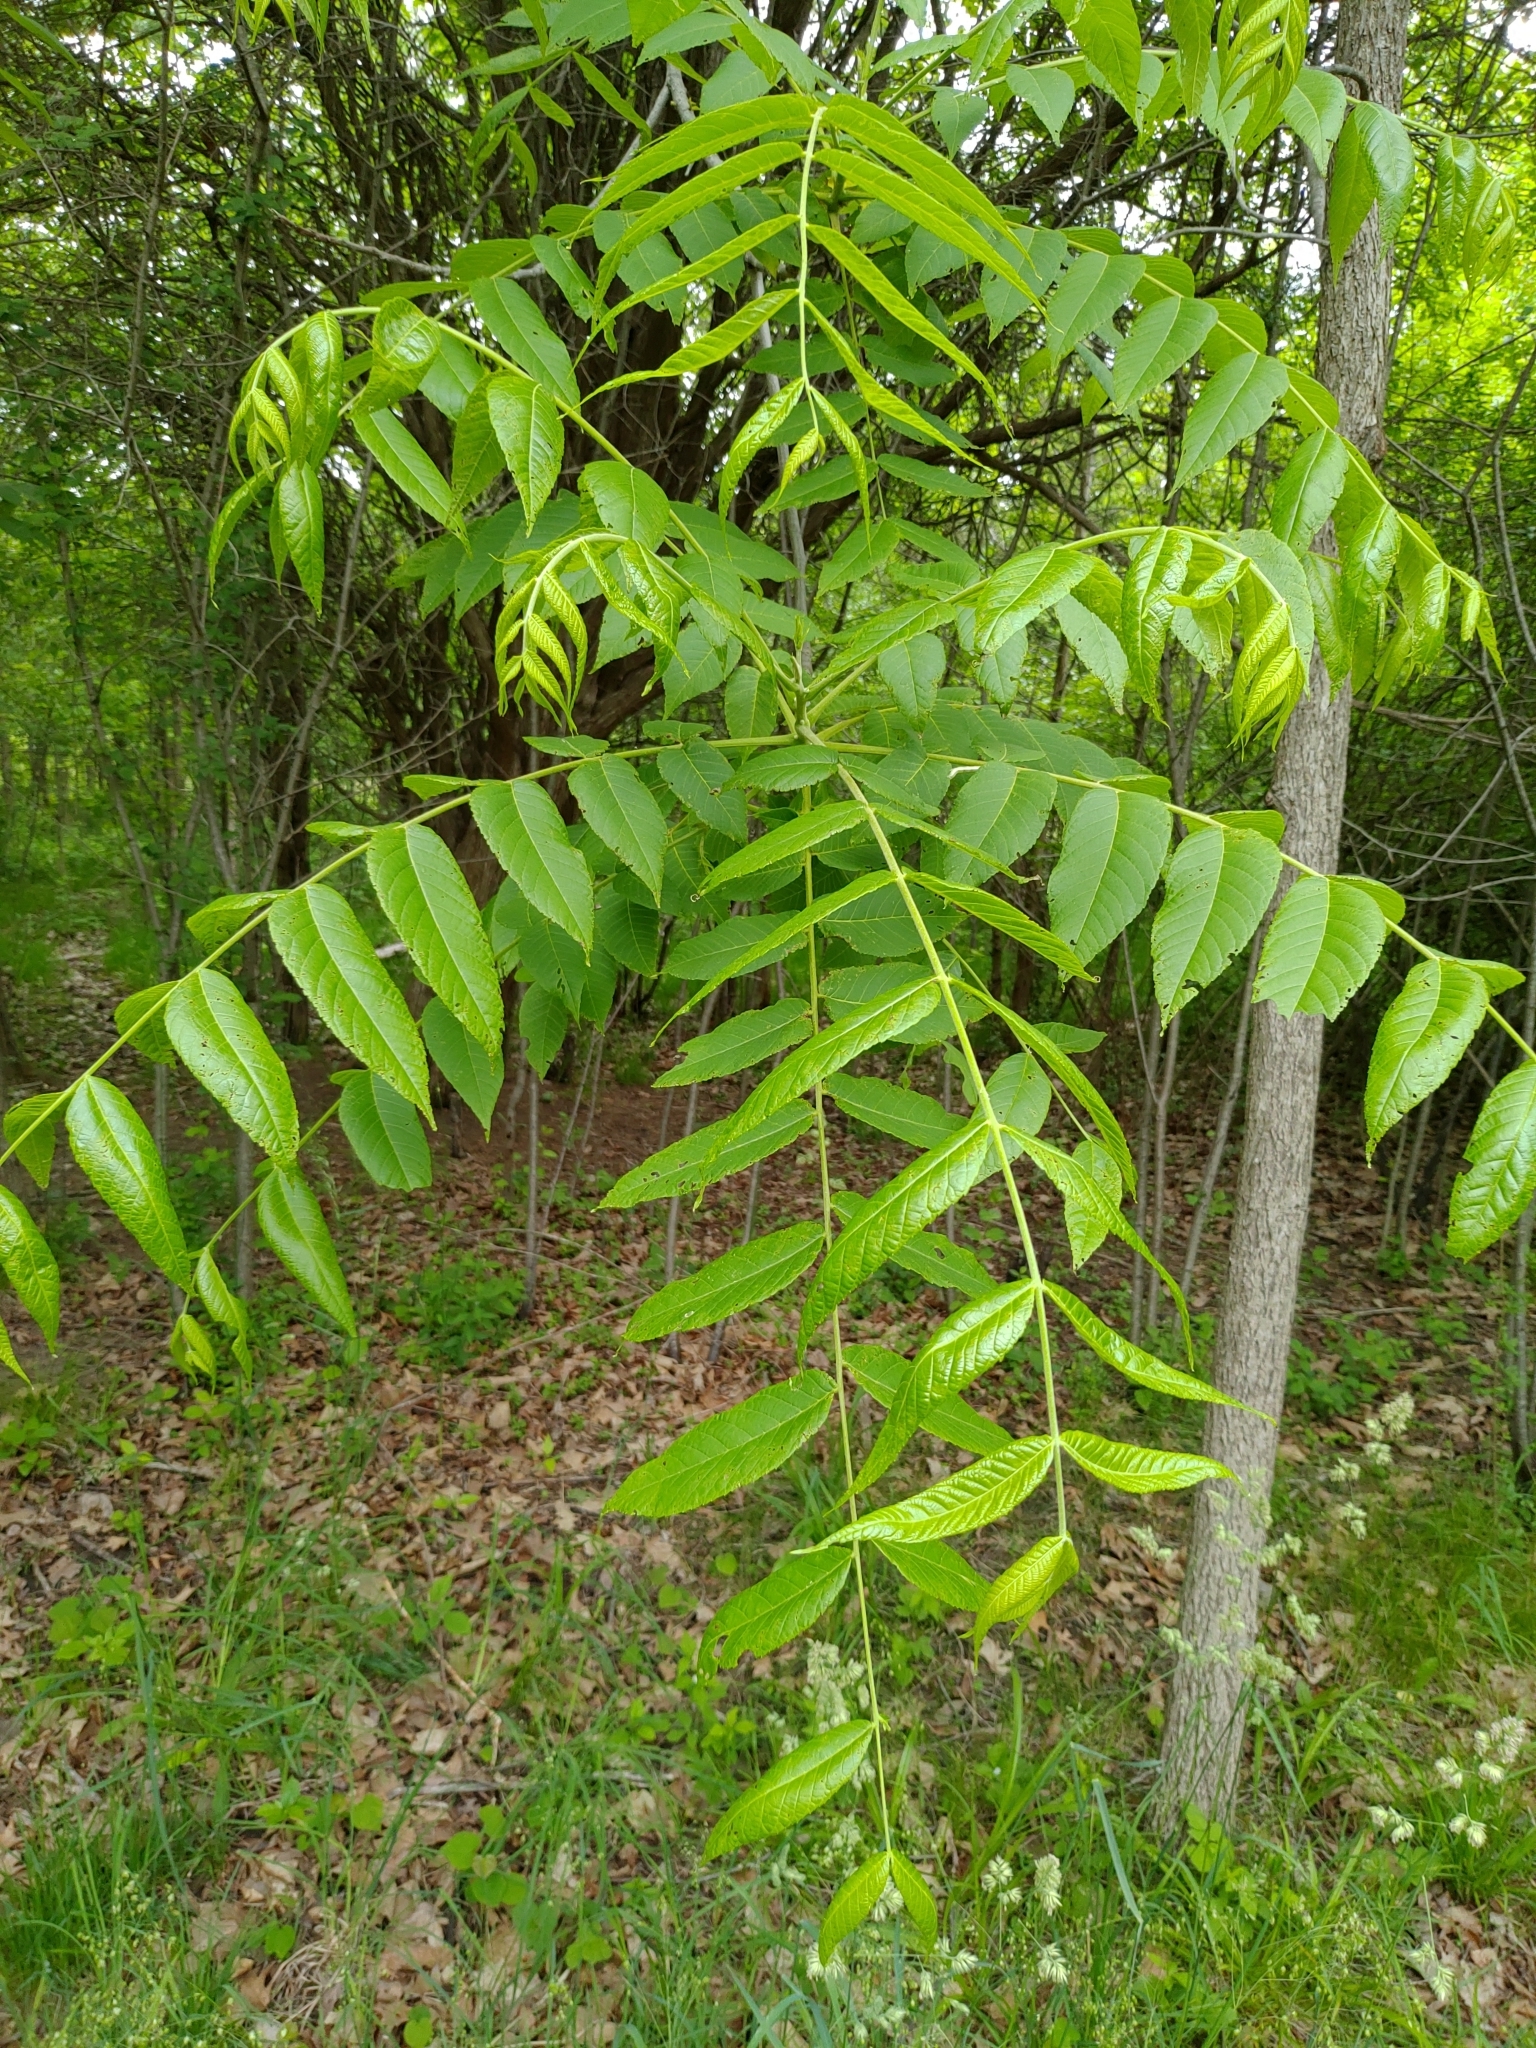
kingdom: Plantae
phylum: Tracheophyta
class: Magnoliopsida
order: Fagales
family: Juglandaceae
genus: Juglans
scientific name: Juglans nigra
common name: Black walnut
